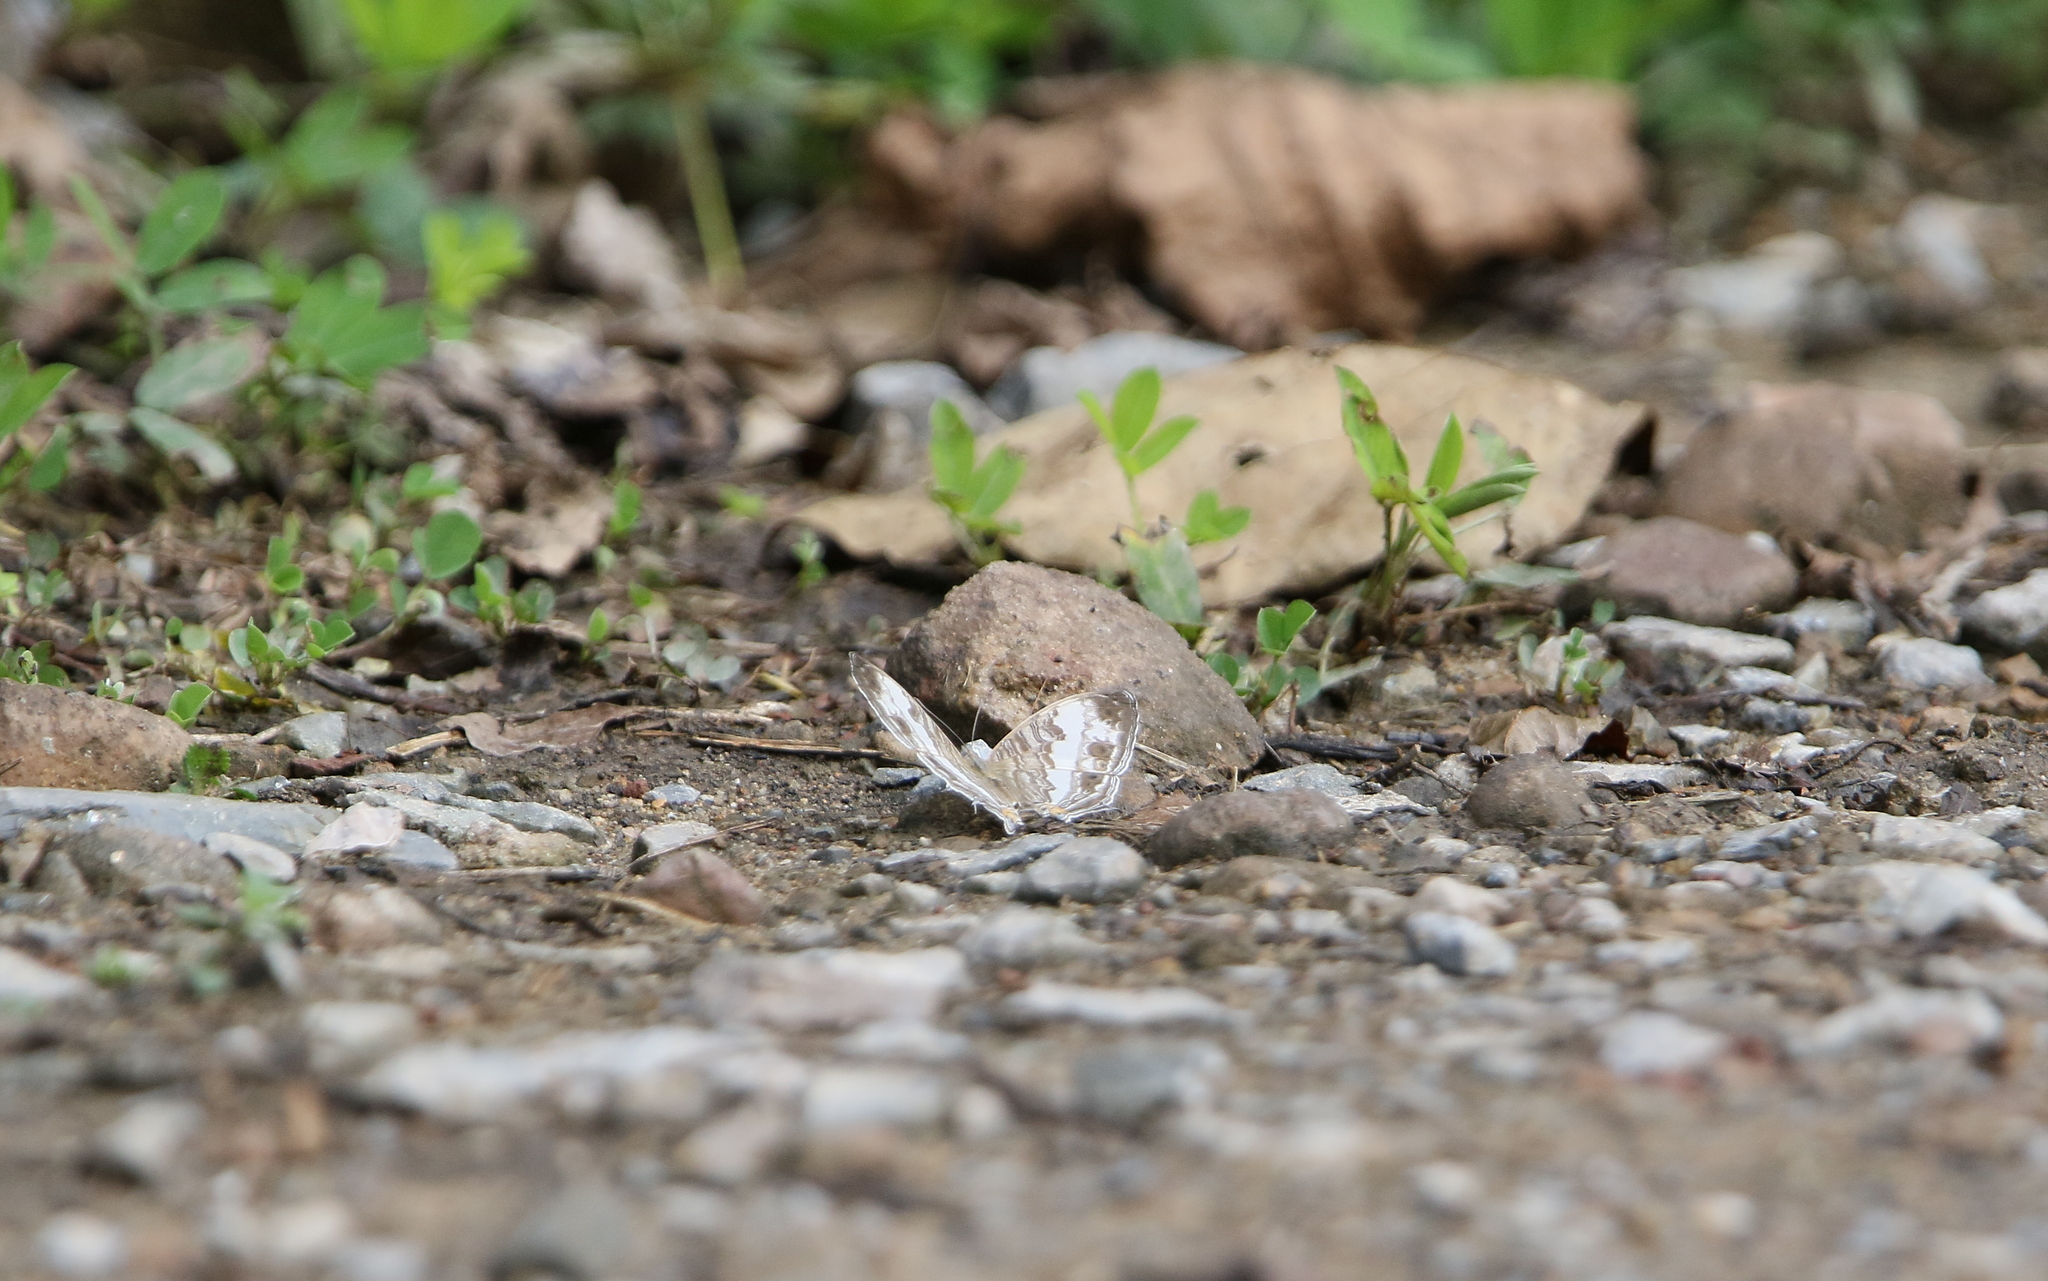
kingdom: Animalia
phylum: Arthropoda
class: Insecta
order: Lepidoptera
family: Nymphalidae
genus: Cyrestis
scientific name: Cyrestis cocles
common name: Marbled map
